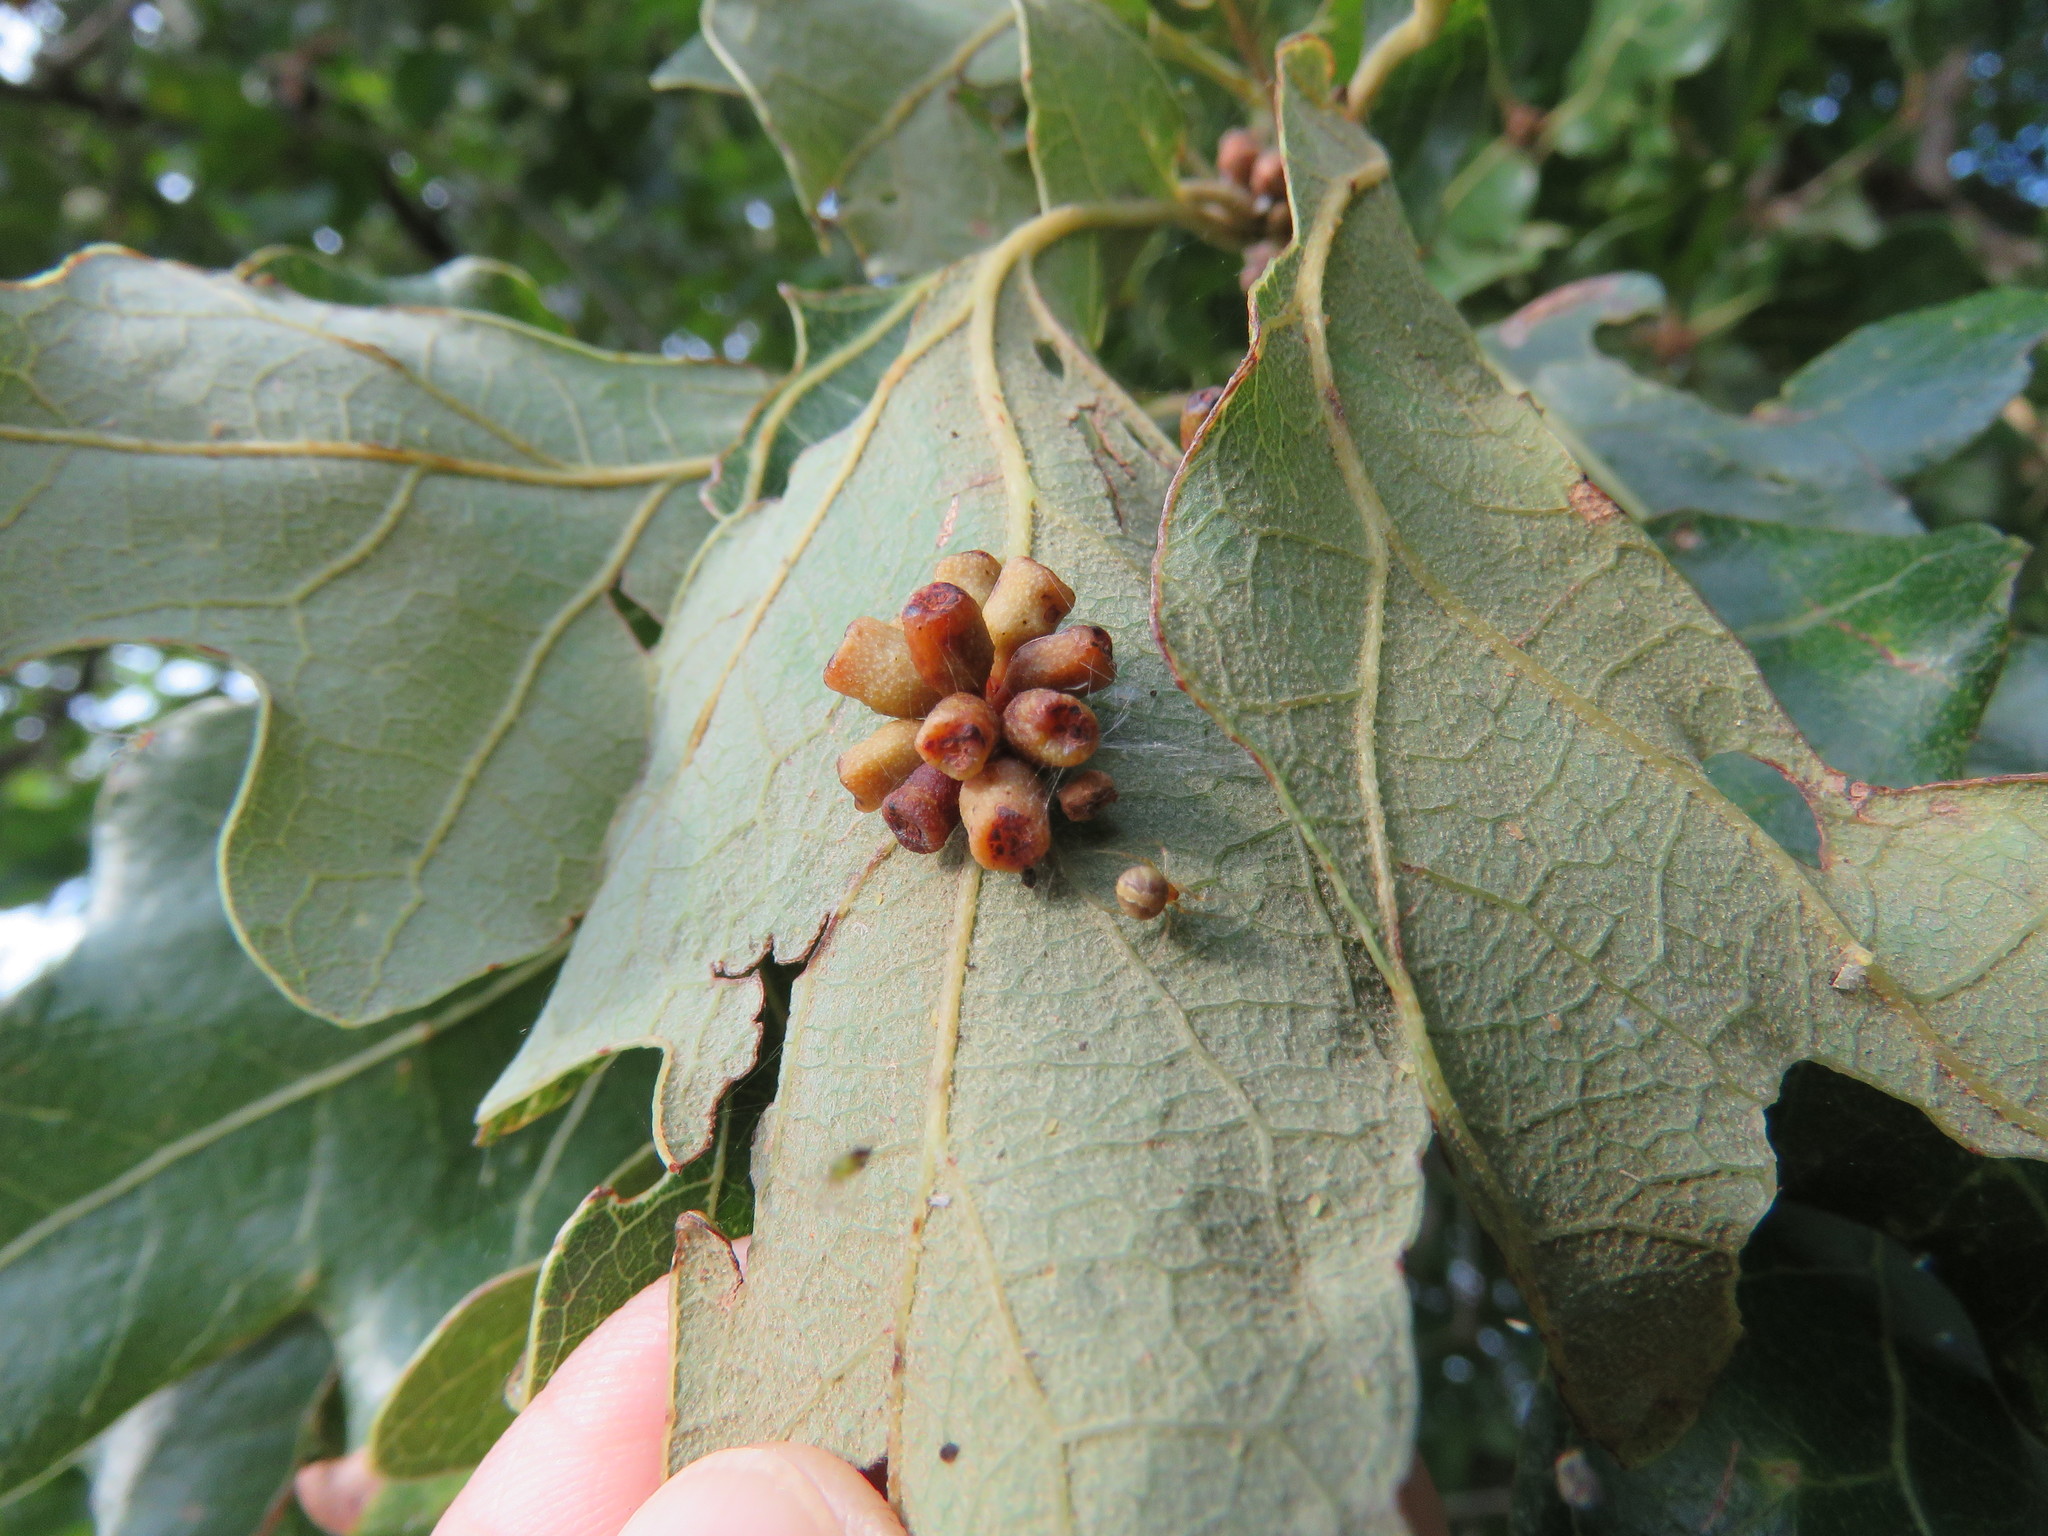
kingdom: Animalia
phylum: Arthropoda
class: Insecta
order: Hymenoptera
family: Cynipidae
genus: Andricus
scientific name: Andricus lustrans
